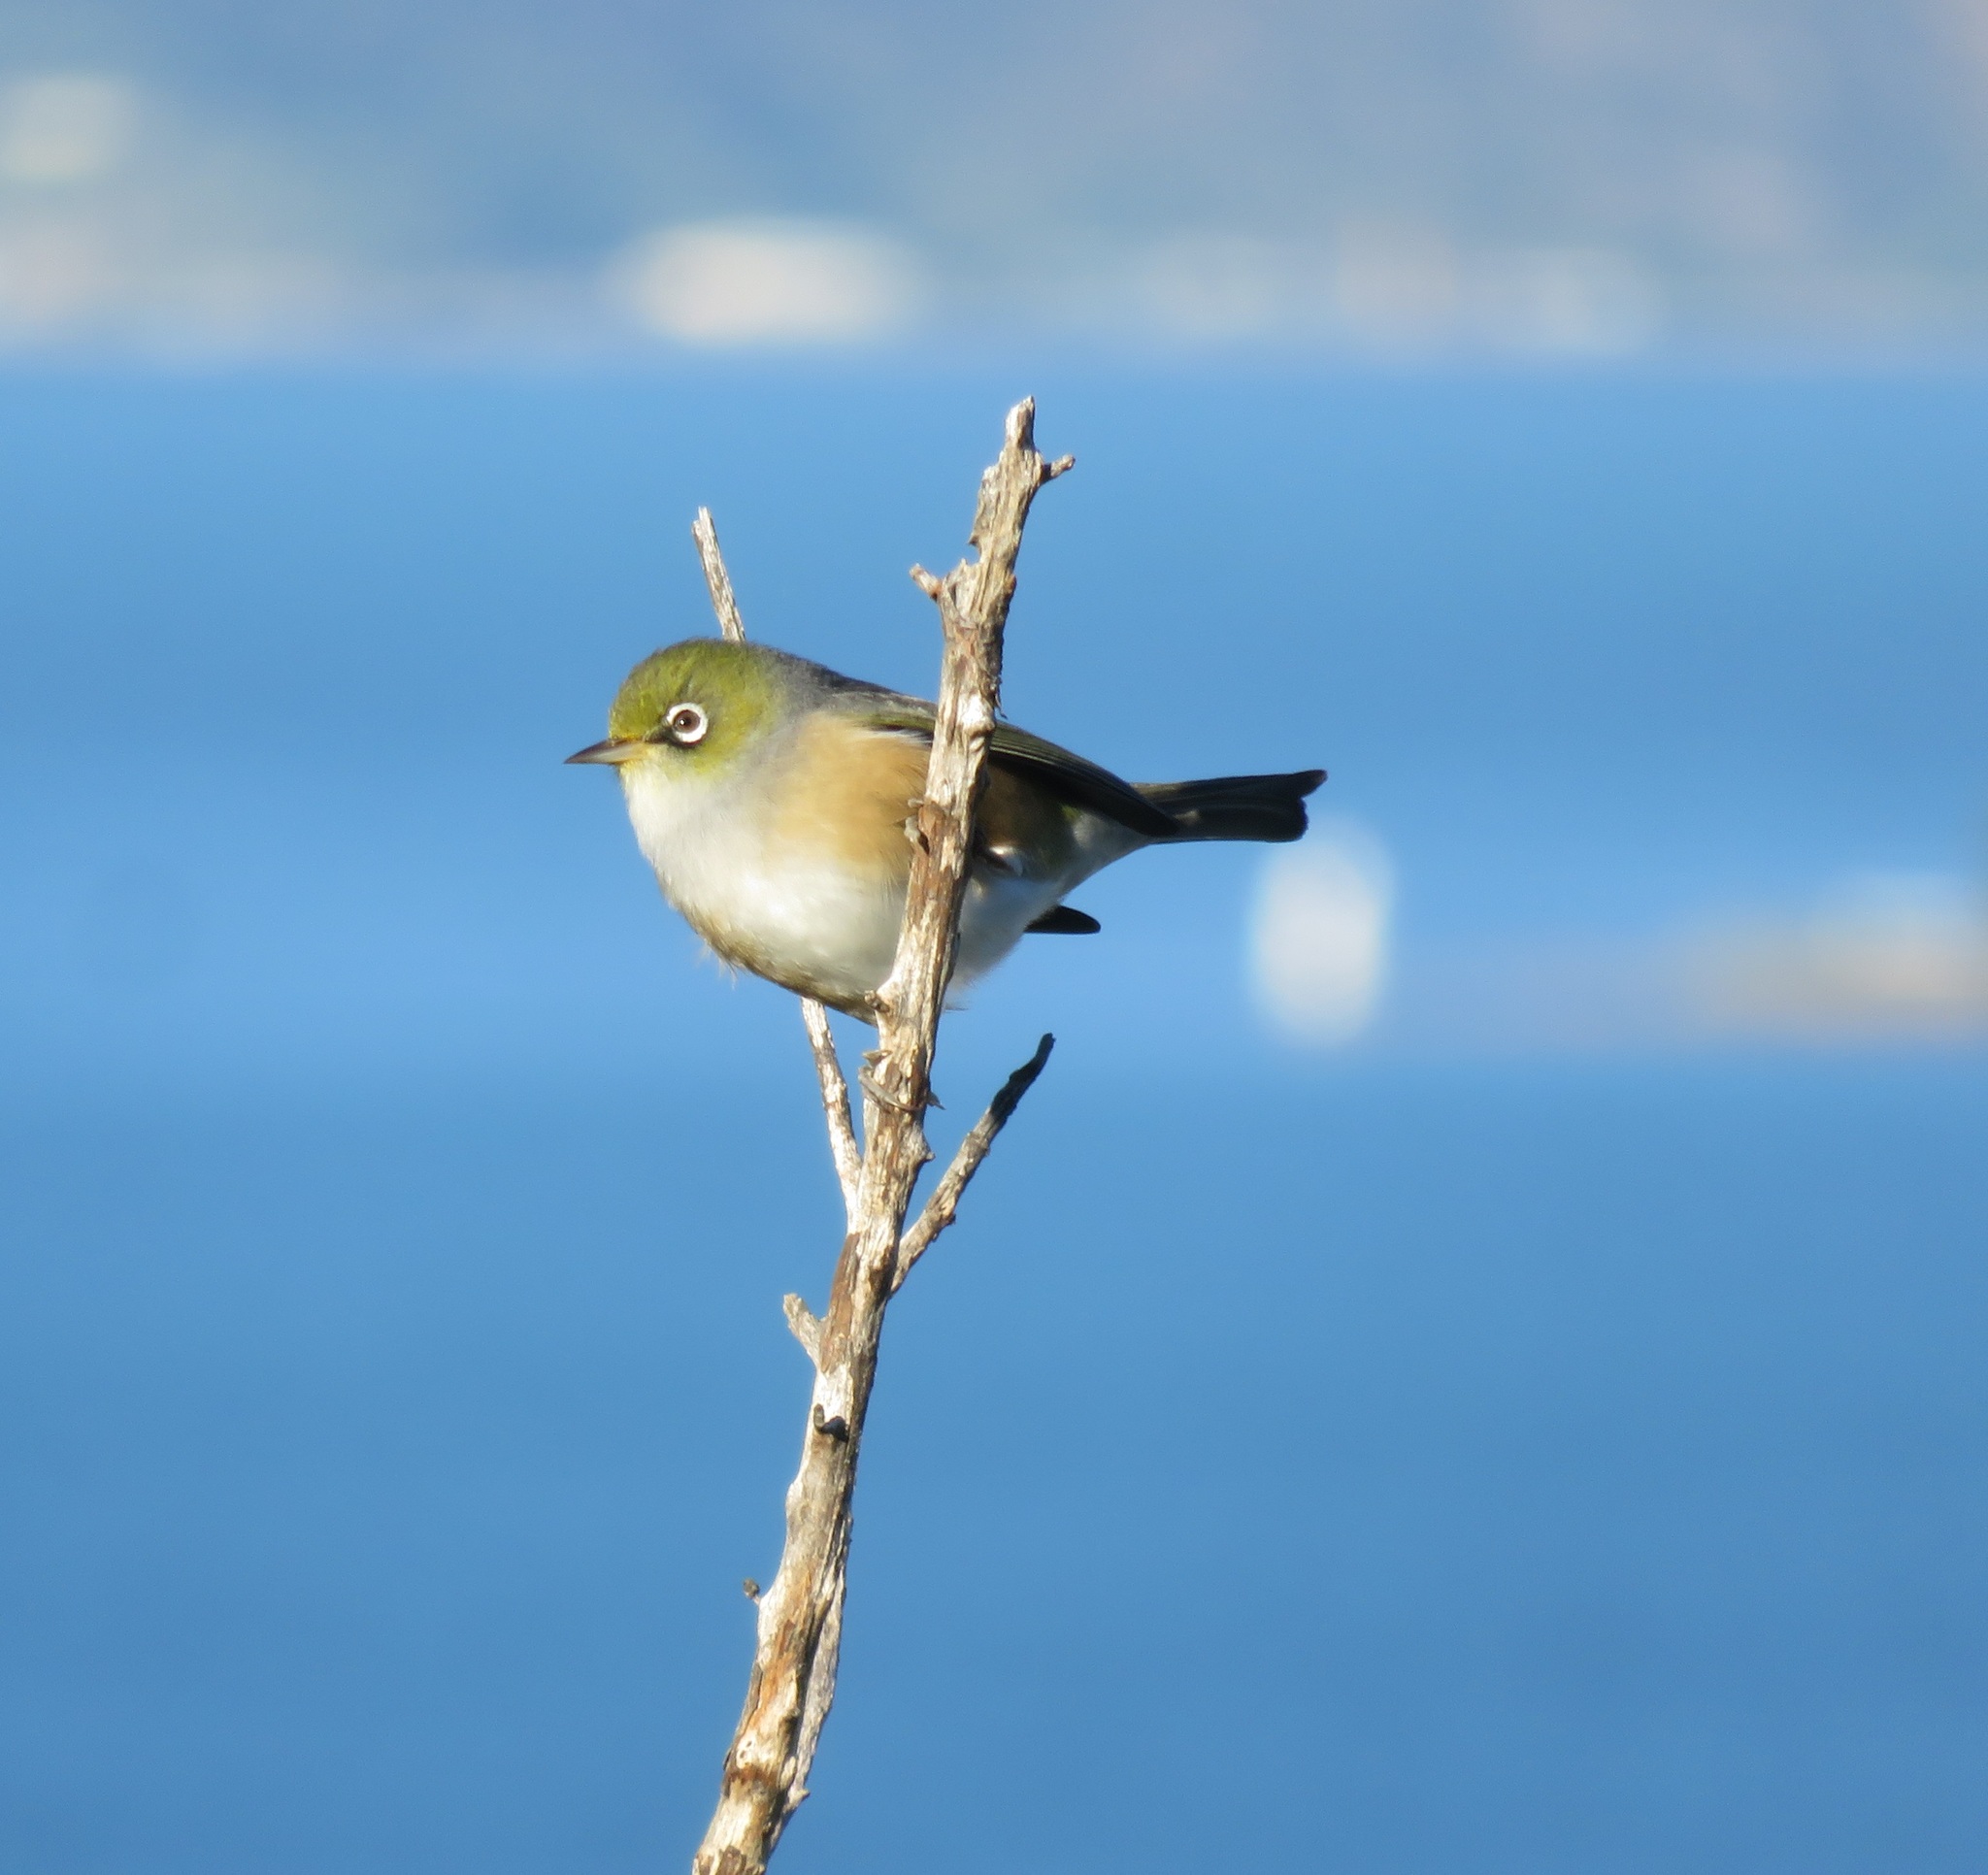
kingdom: Animalia
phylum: Chordata
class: Aves
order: Passeriformes
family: Zosteropidae
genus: Zosterops
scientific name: Zosterops lateralis
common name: Silvereye
